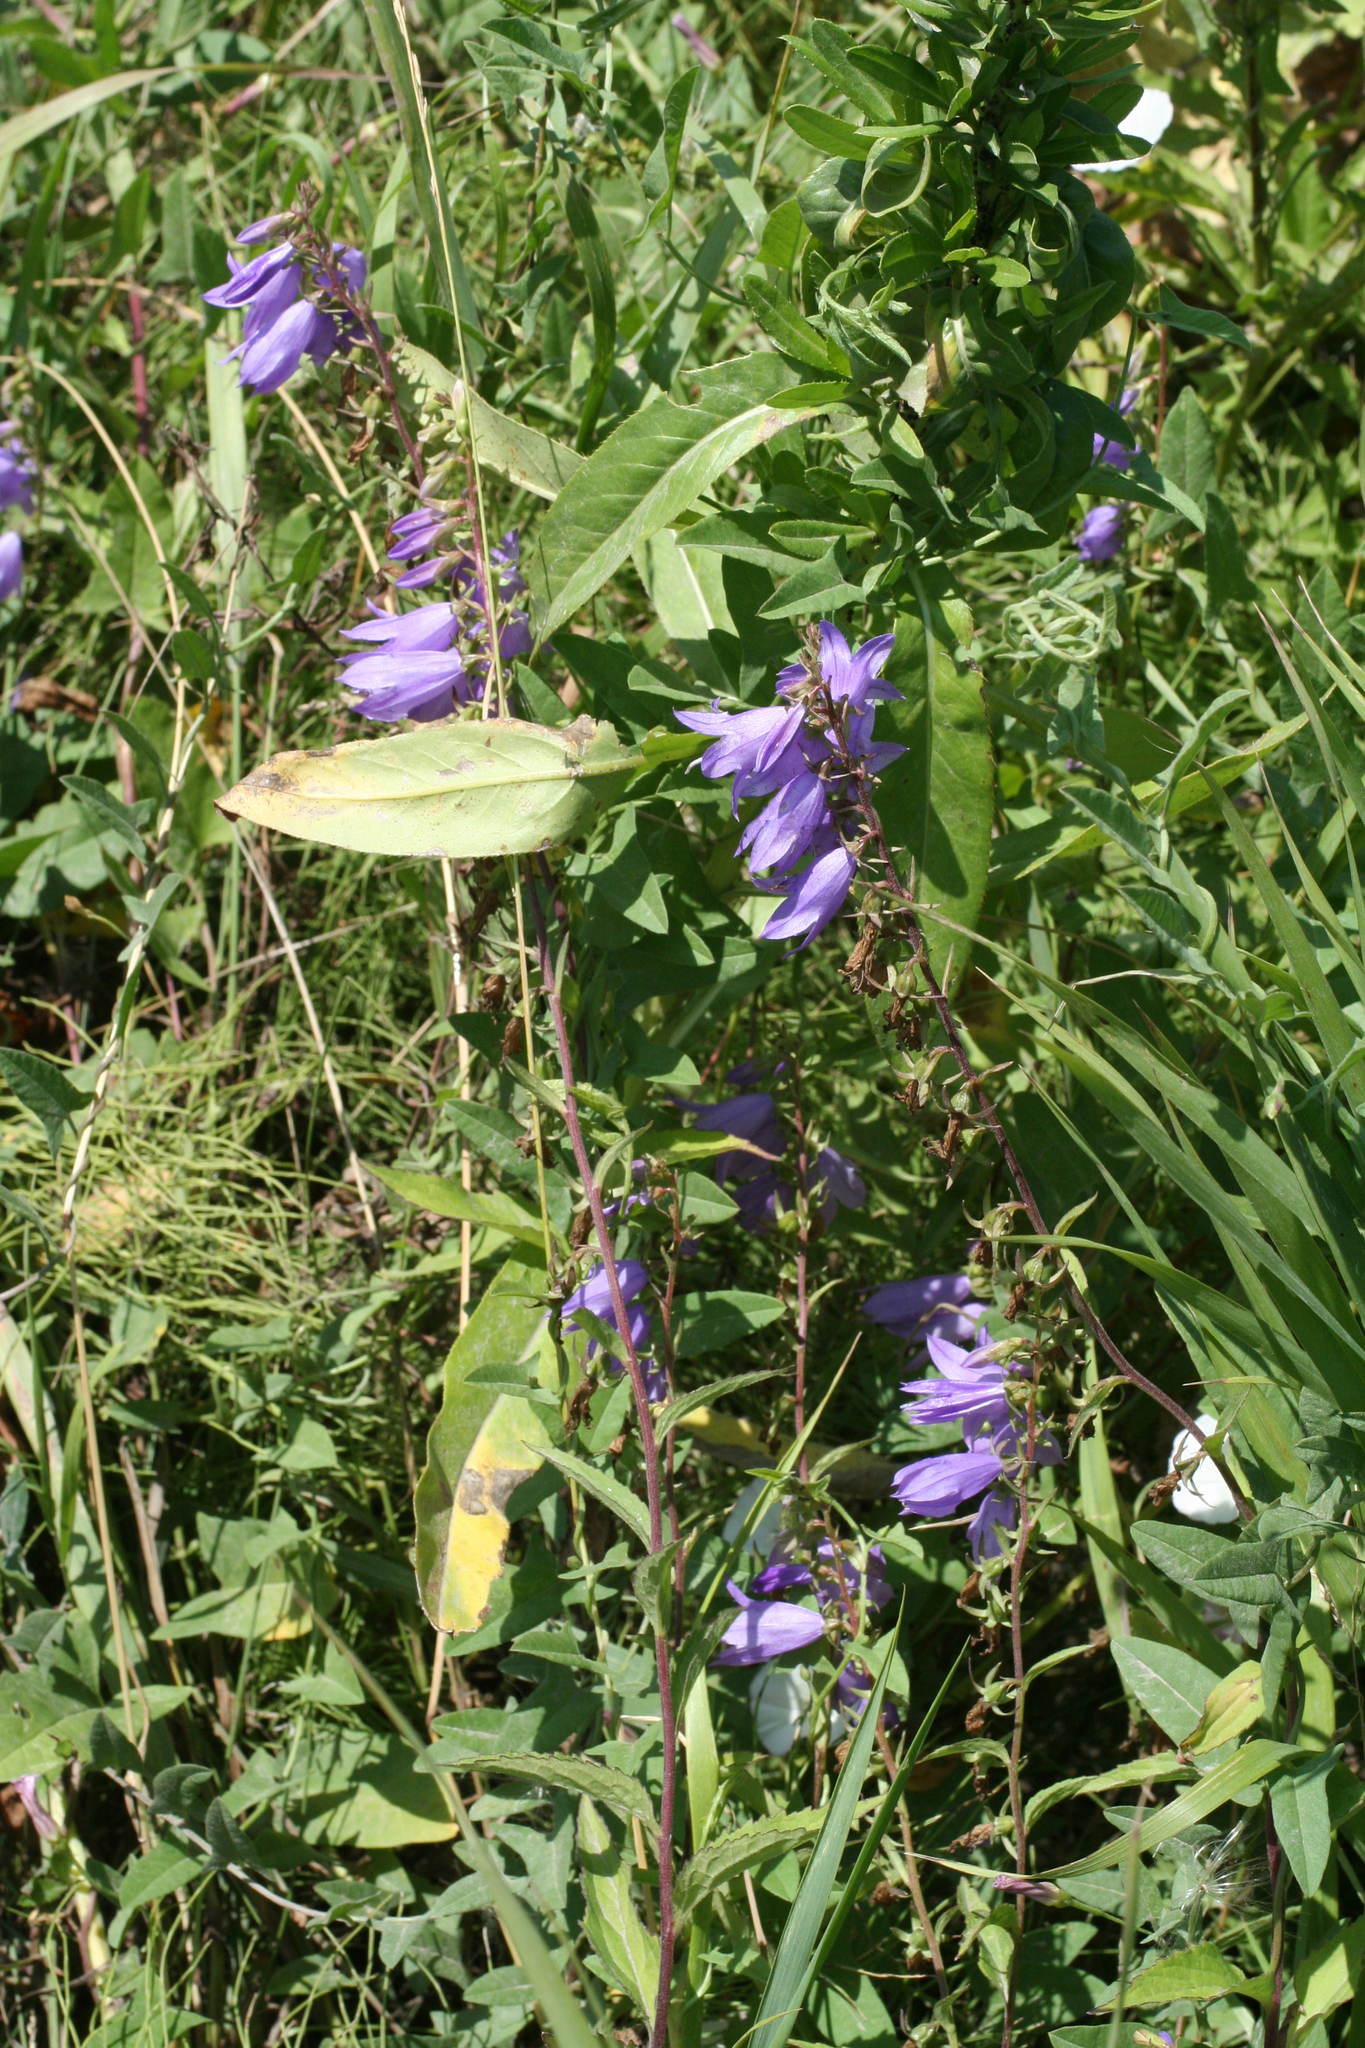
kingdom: Plantae
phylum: Tracheophyta
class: Magnoliopsida
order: Asterales
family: Campanulaceae
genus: Campanula
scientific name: Campanula rapunculoides
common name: Creeping bellflower
